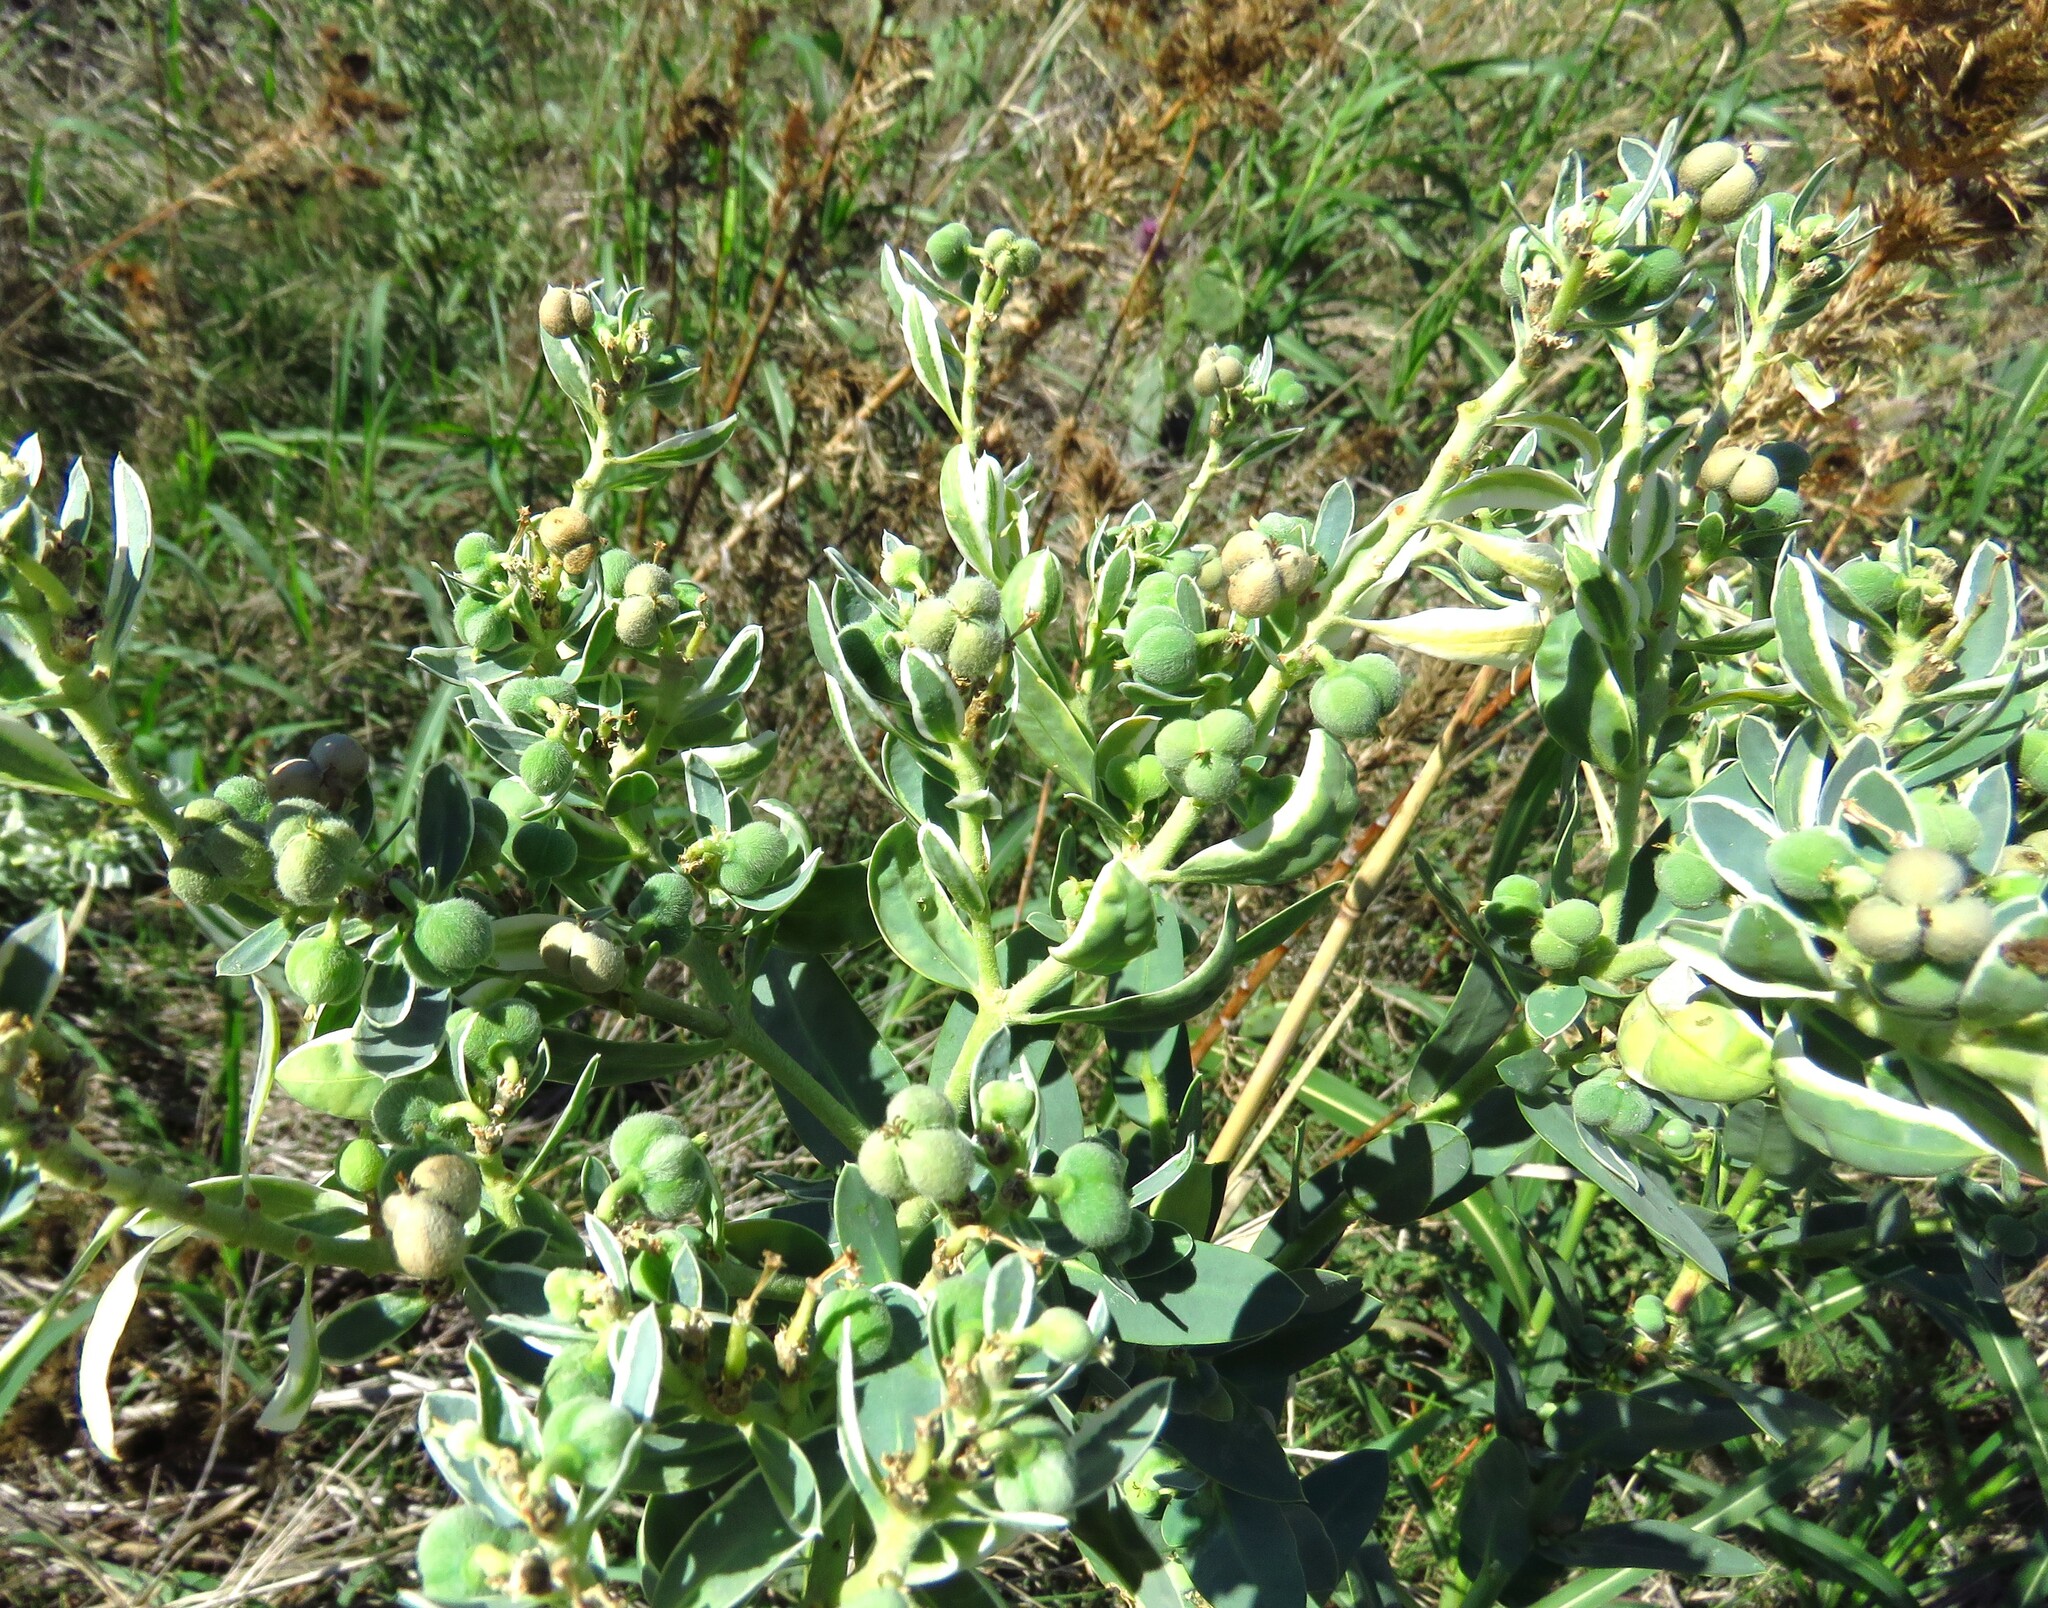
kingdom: Plantae
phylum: Tracheophyta
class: Magnoliopsida
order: Malpighiales
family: Euphorbiaceae
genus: Euphorbia
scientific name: Euphorbia marginata
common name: Ghostweed
